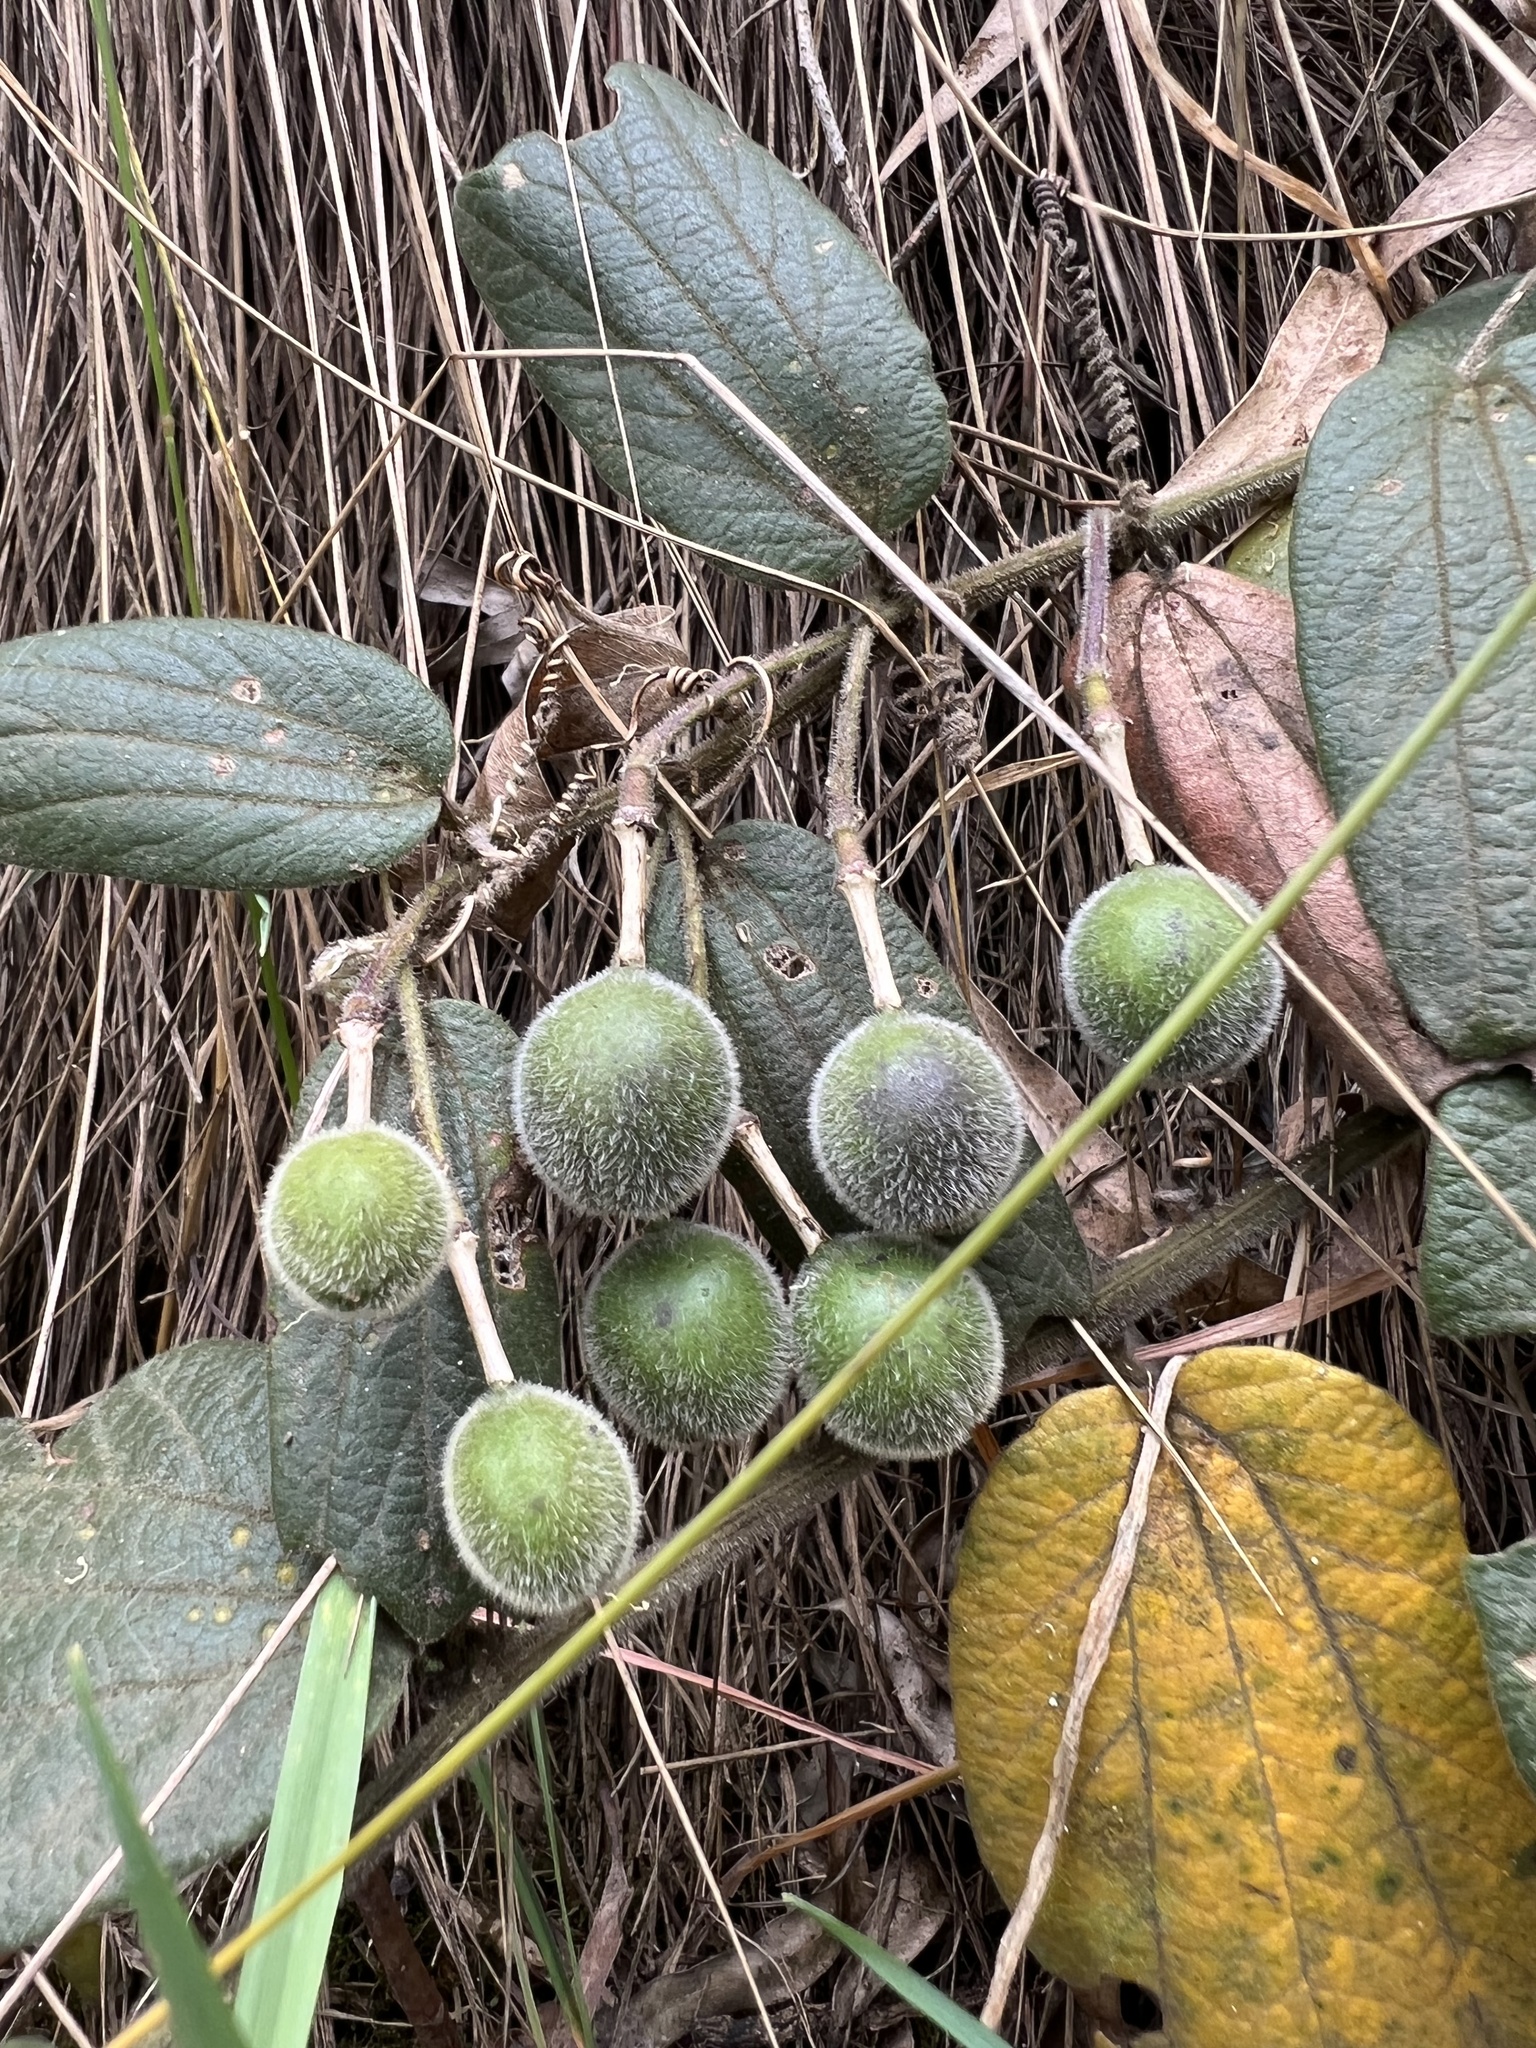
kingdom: Plantae
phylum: Tracheophyta
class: Magnoliopsida
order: Malpighiales
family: Passifloraceae
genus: Passiflora
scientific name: Passiflora bogotensis
